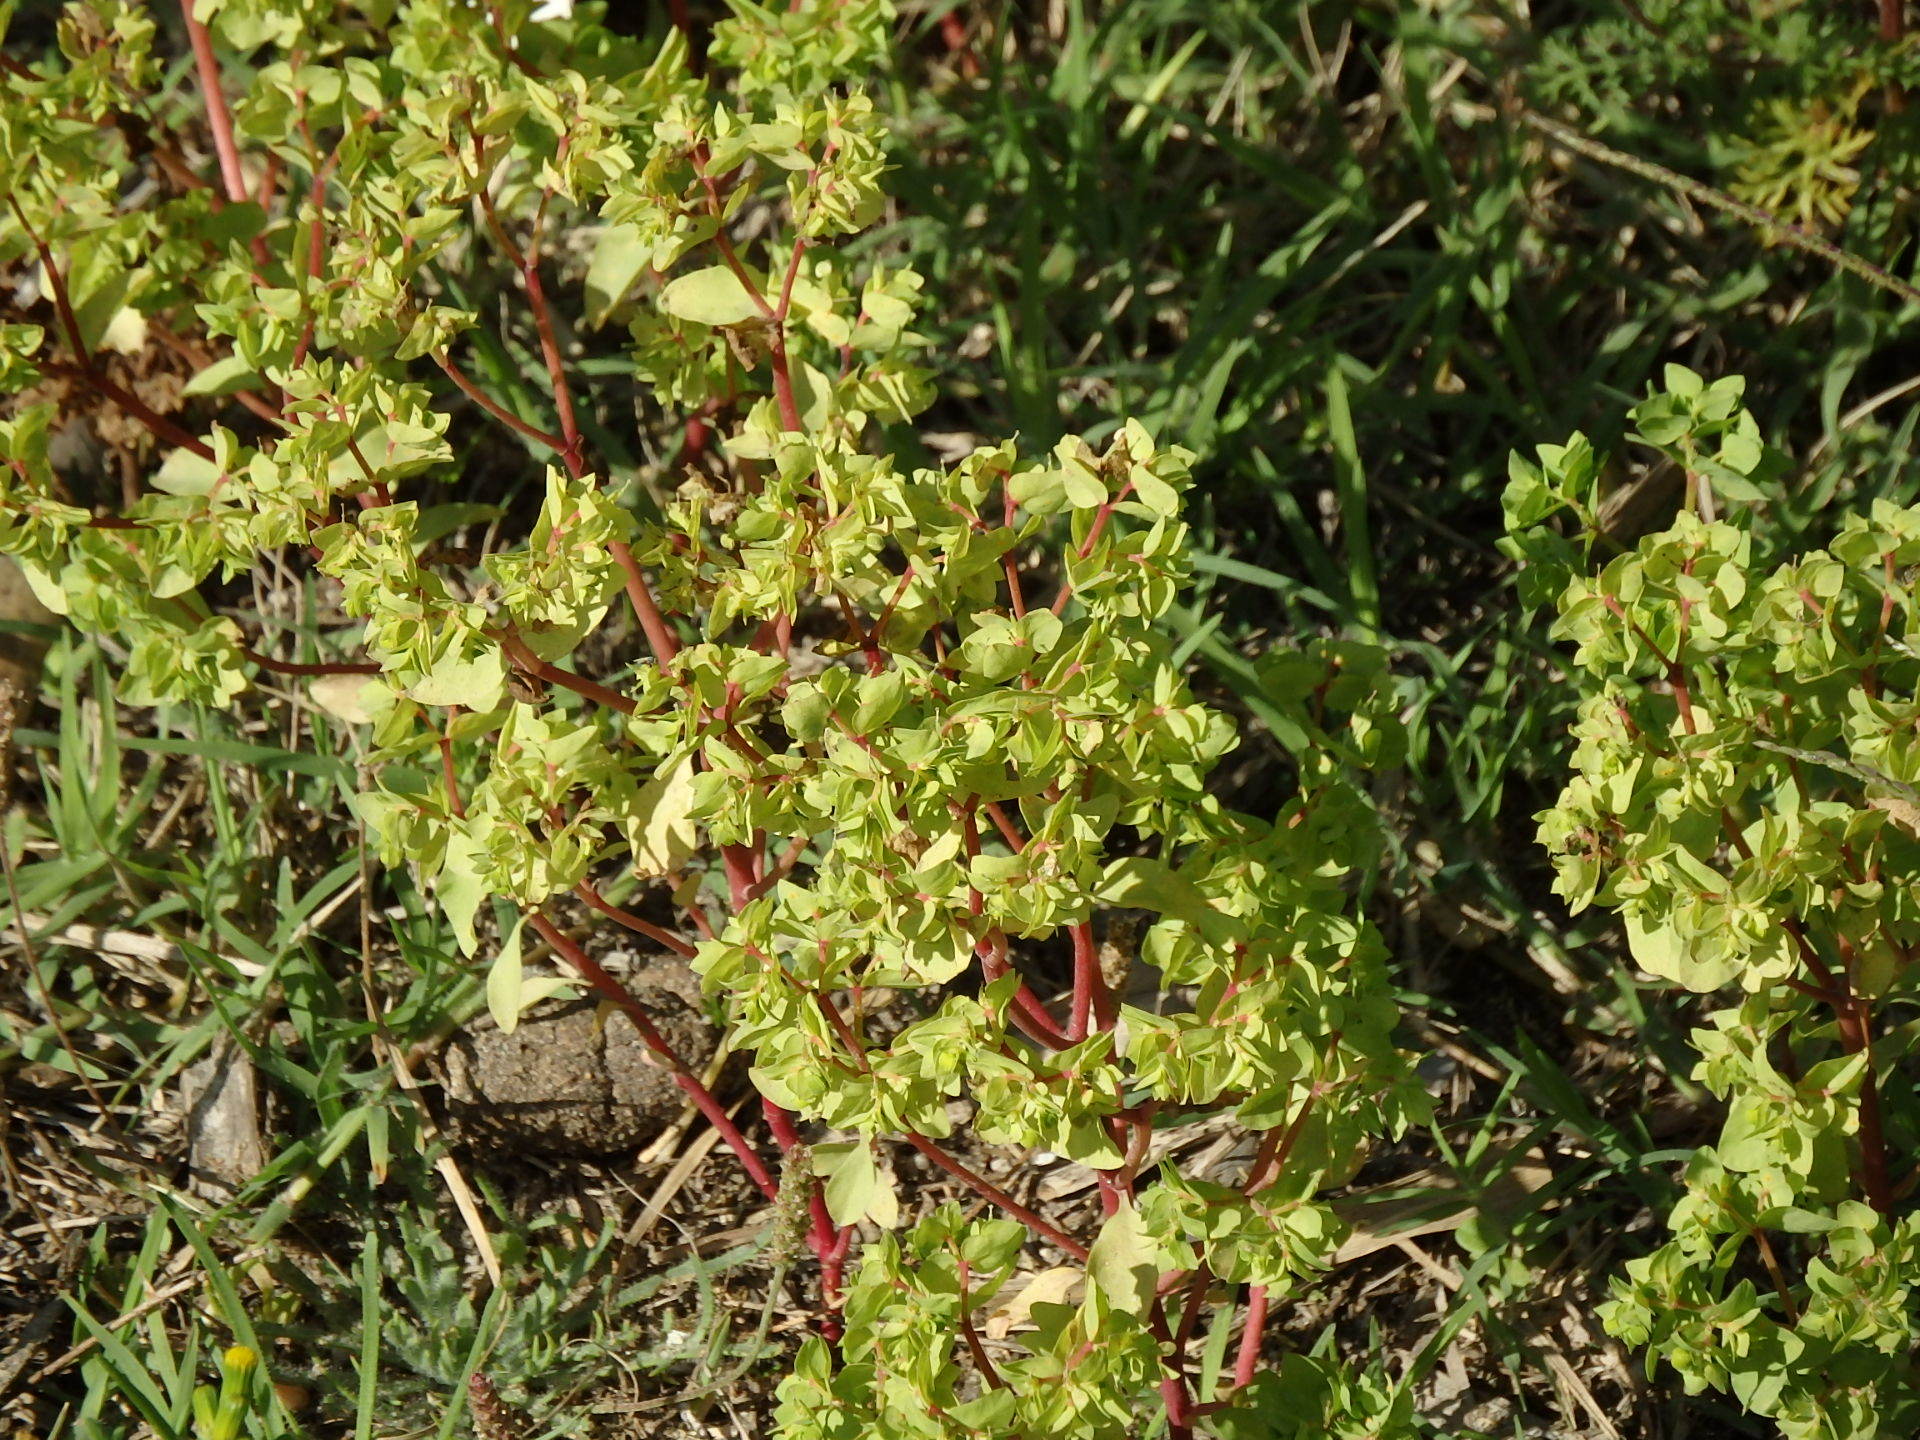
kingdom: Plantae
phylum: Tracheophyta
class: Magnoliopsida
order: Malpighiales
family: Euphorbiaceae
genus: Euphorbia
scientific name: Euphorbia peplus
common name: Petty spurge
